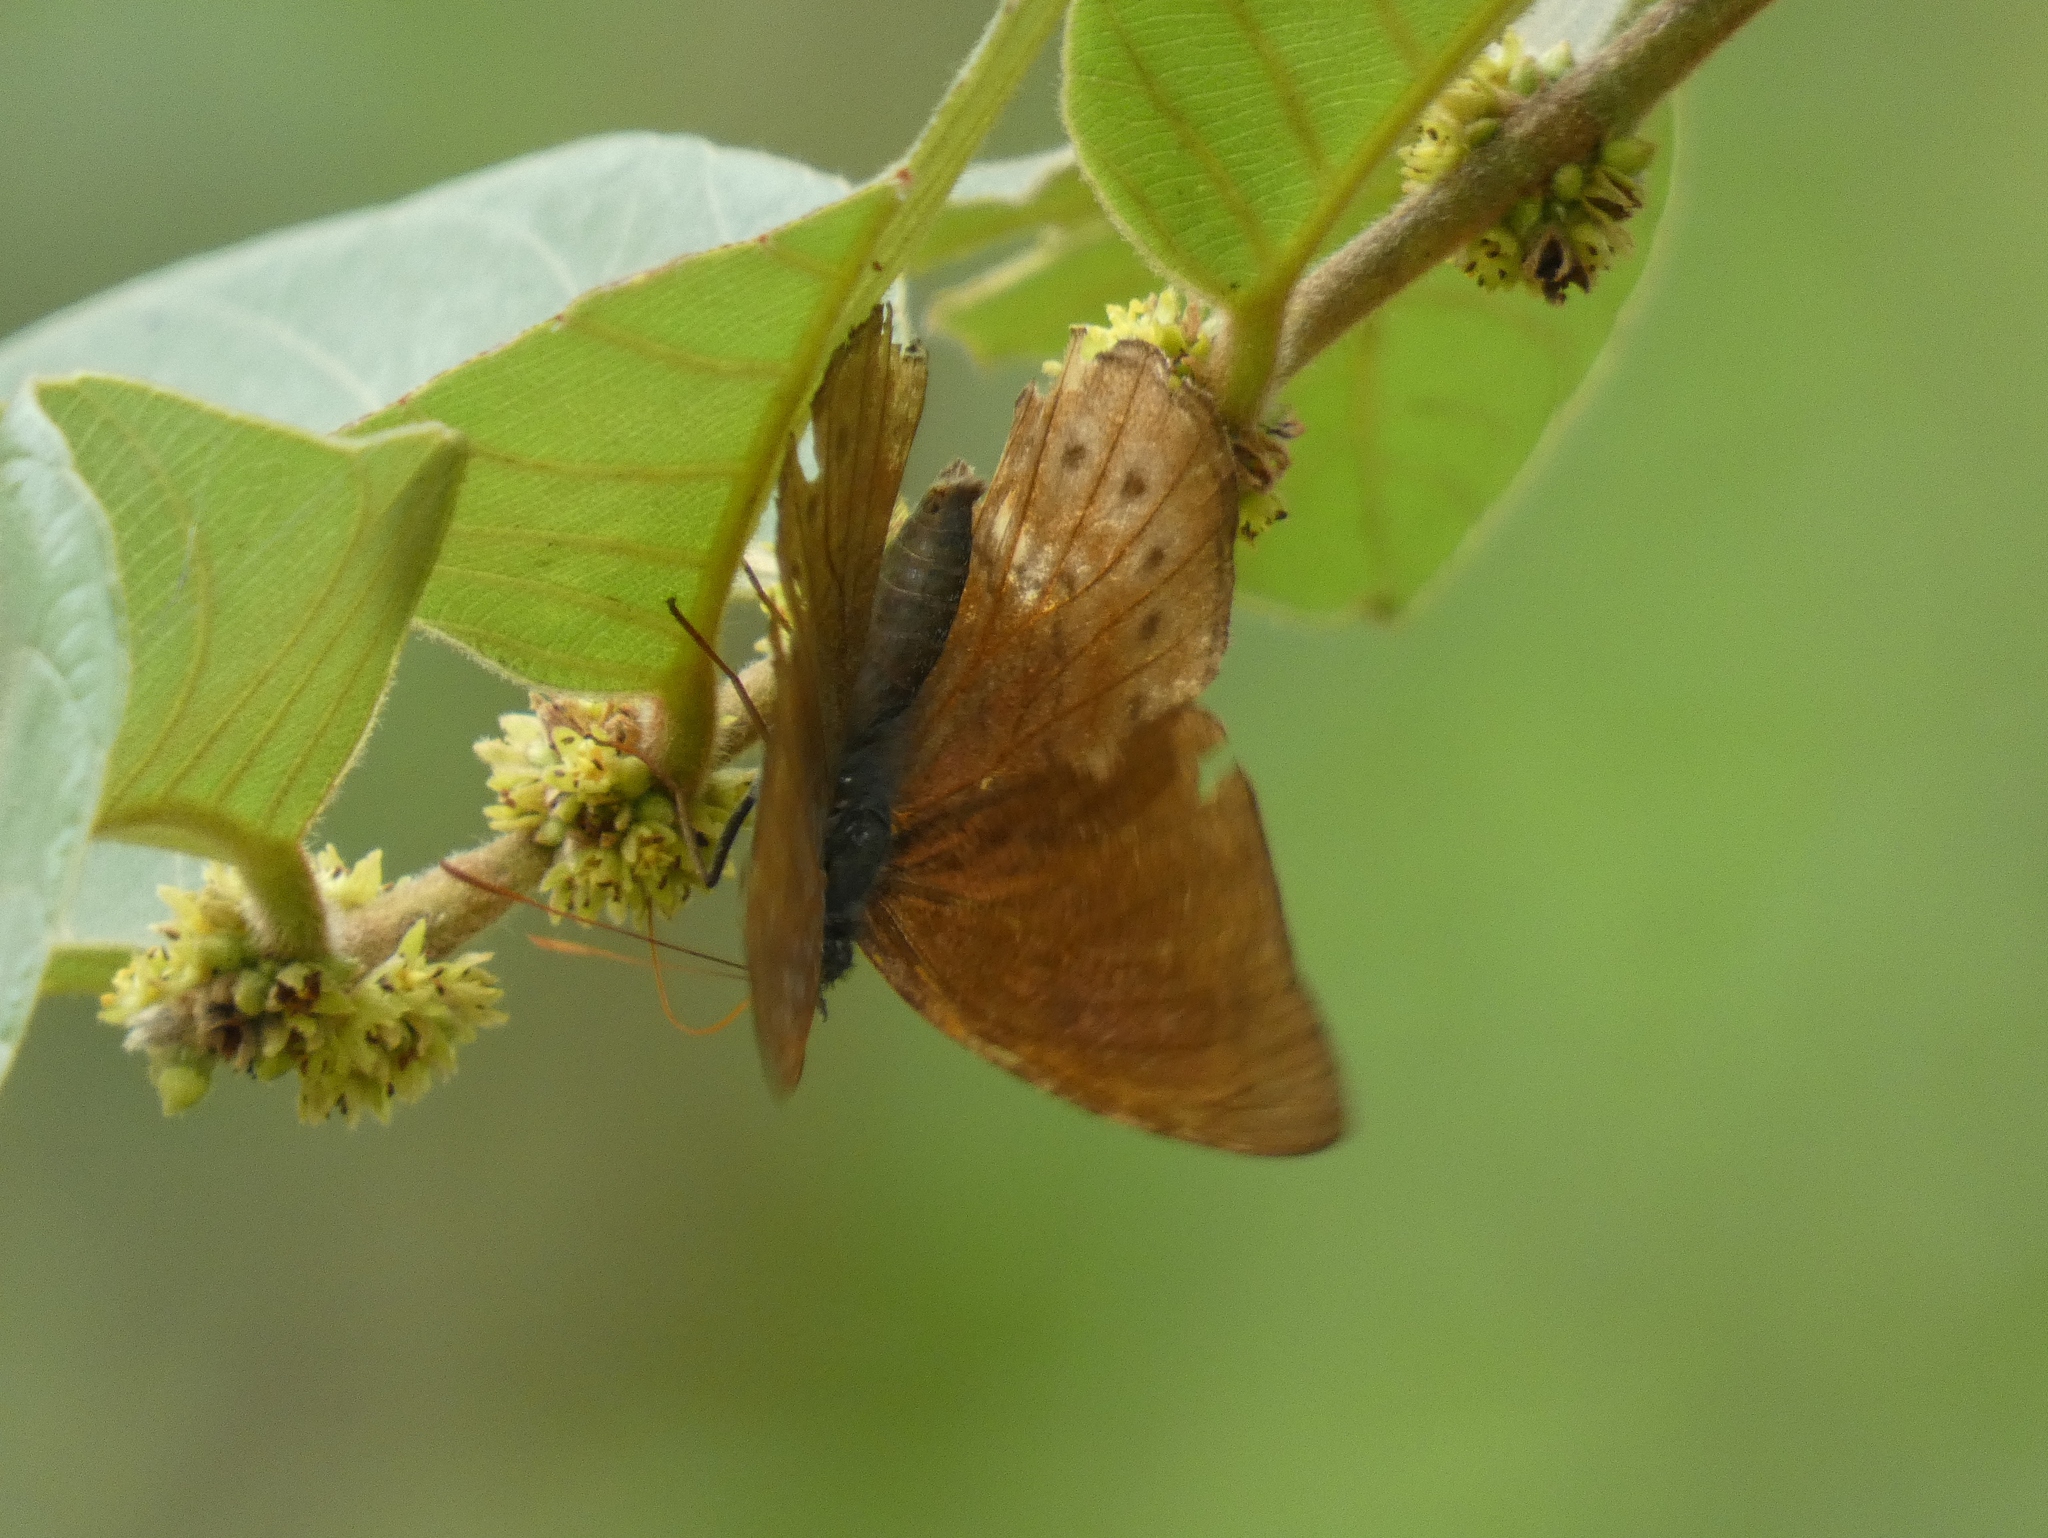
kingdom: Animalia
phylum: Arthropoda
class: Insecta
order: Lepidoptera
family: Nymphalidae
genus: Sevenia
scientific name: Sevenia
